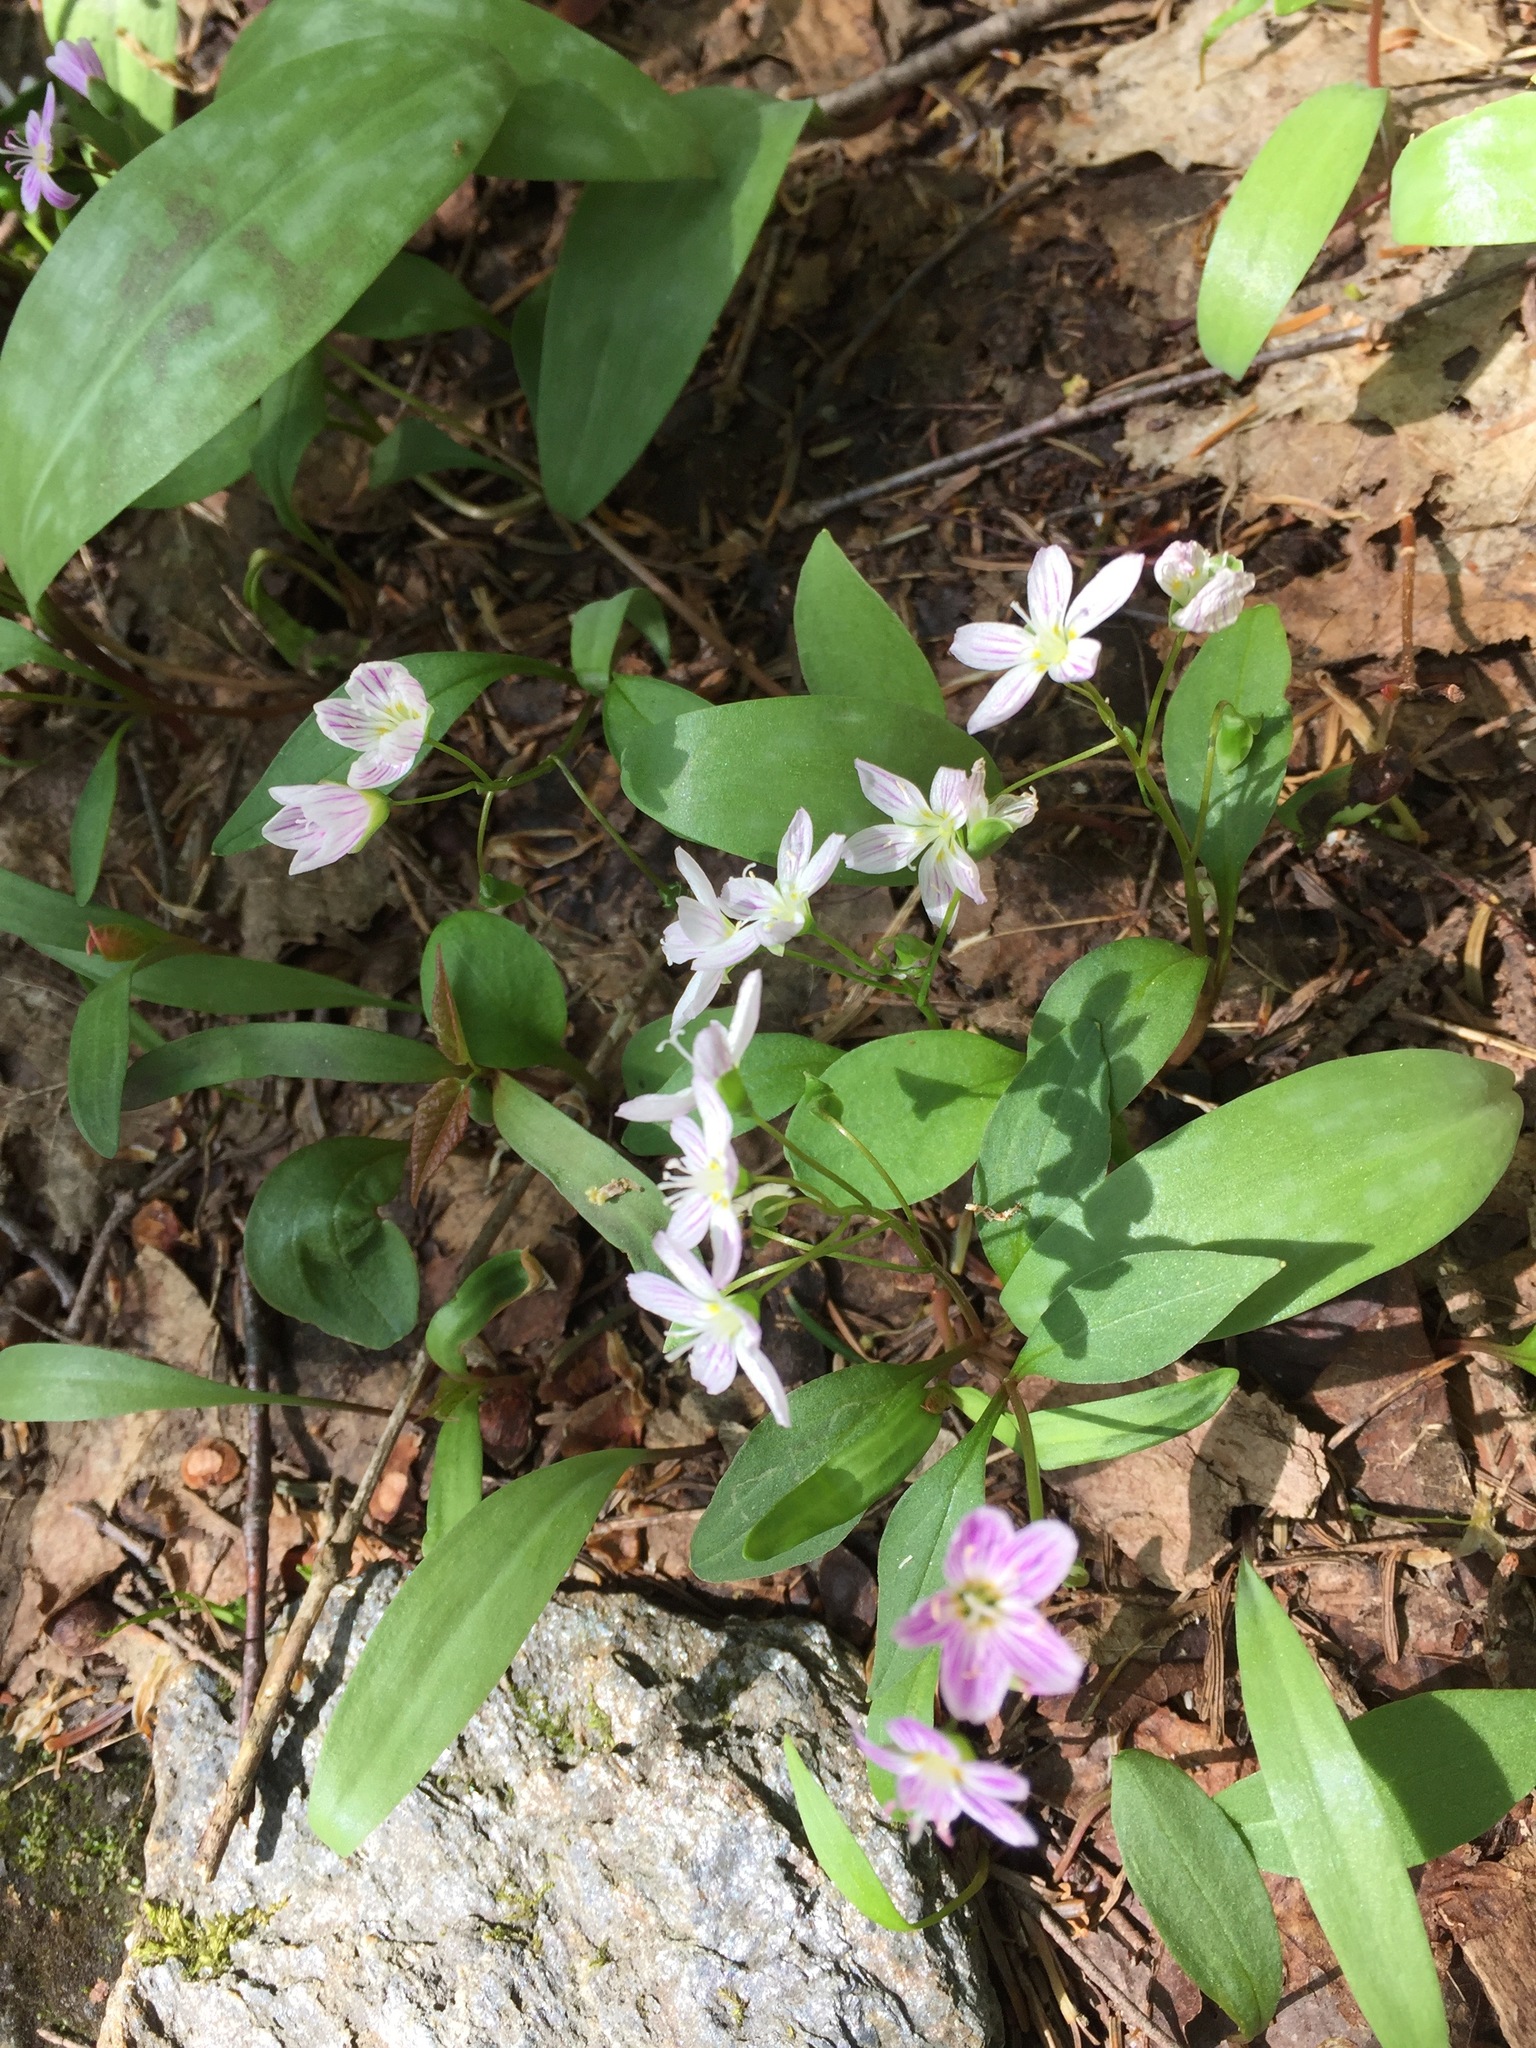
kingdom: Plantae
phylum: Tracheophyta
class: Magnoliopsida
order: Caryophyllales
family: Montiaceae
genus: Claytonia
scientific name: Claytonia caroliniana
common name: Carolina spring beauty
